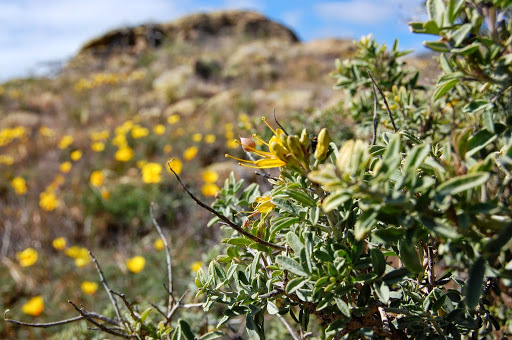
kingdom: Plantae
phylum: Tracheophyta
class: Magnoliopsida
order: Brassicales
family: Cleomaceae
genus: Cleomella
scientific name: Cleomella arborea
